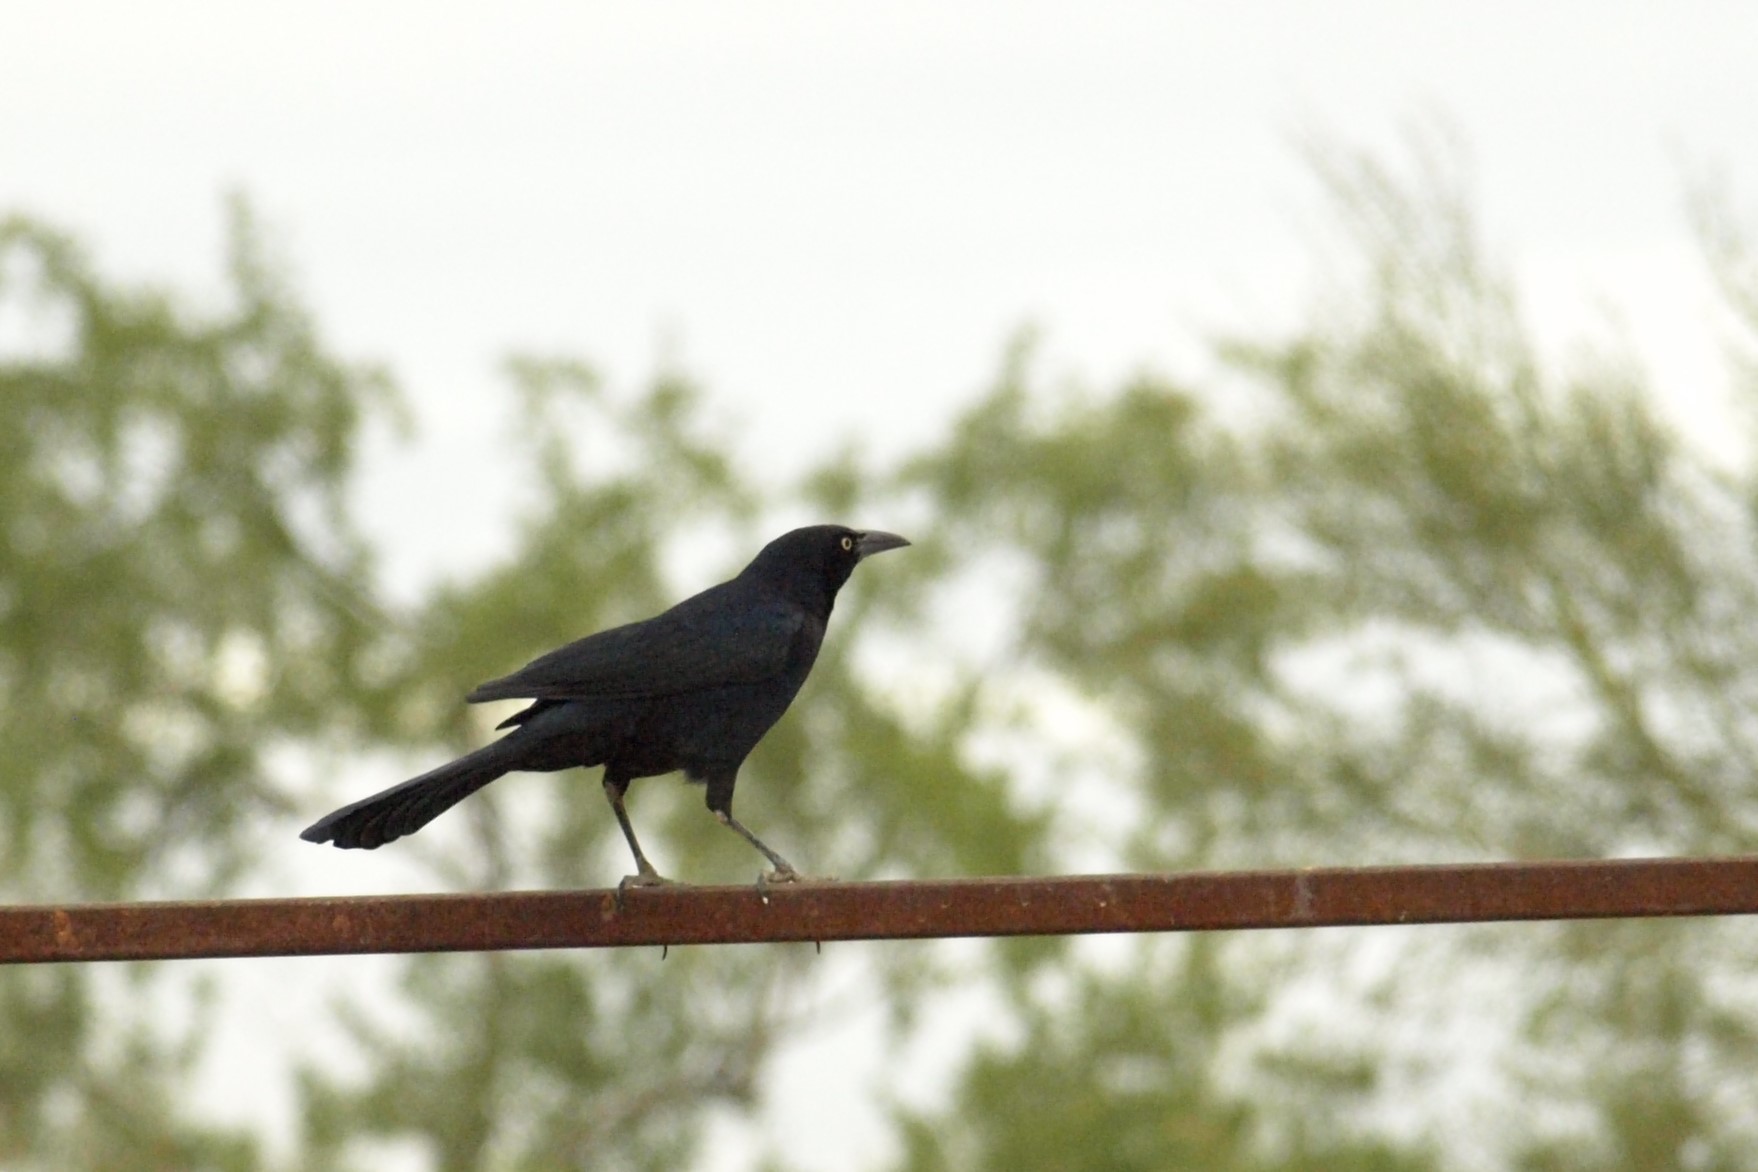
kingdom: Animalia
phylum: Chordata
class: Aves
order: Passeriformes
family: Icteridae
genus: Quiscalus
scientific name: Quiscalus mexicanus
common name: Great-tailed grackle
